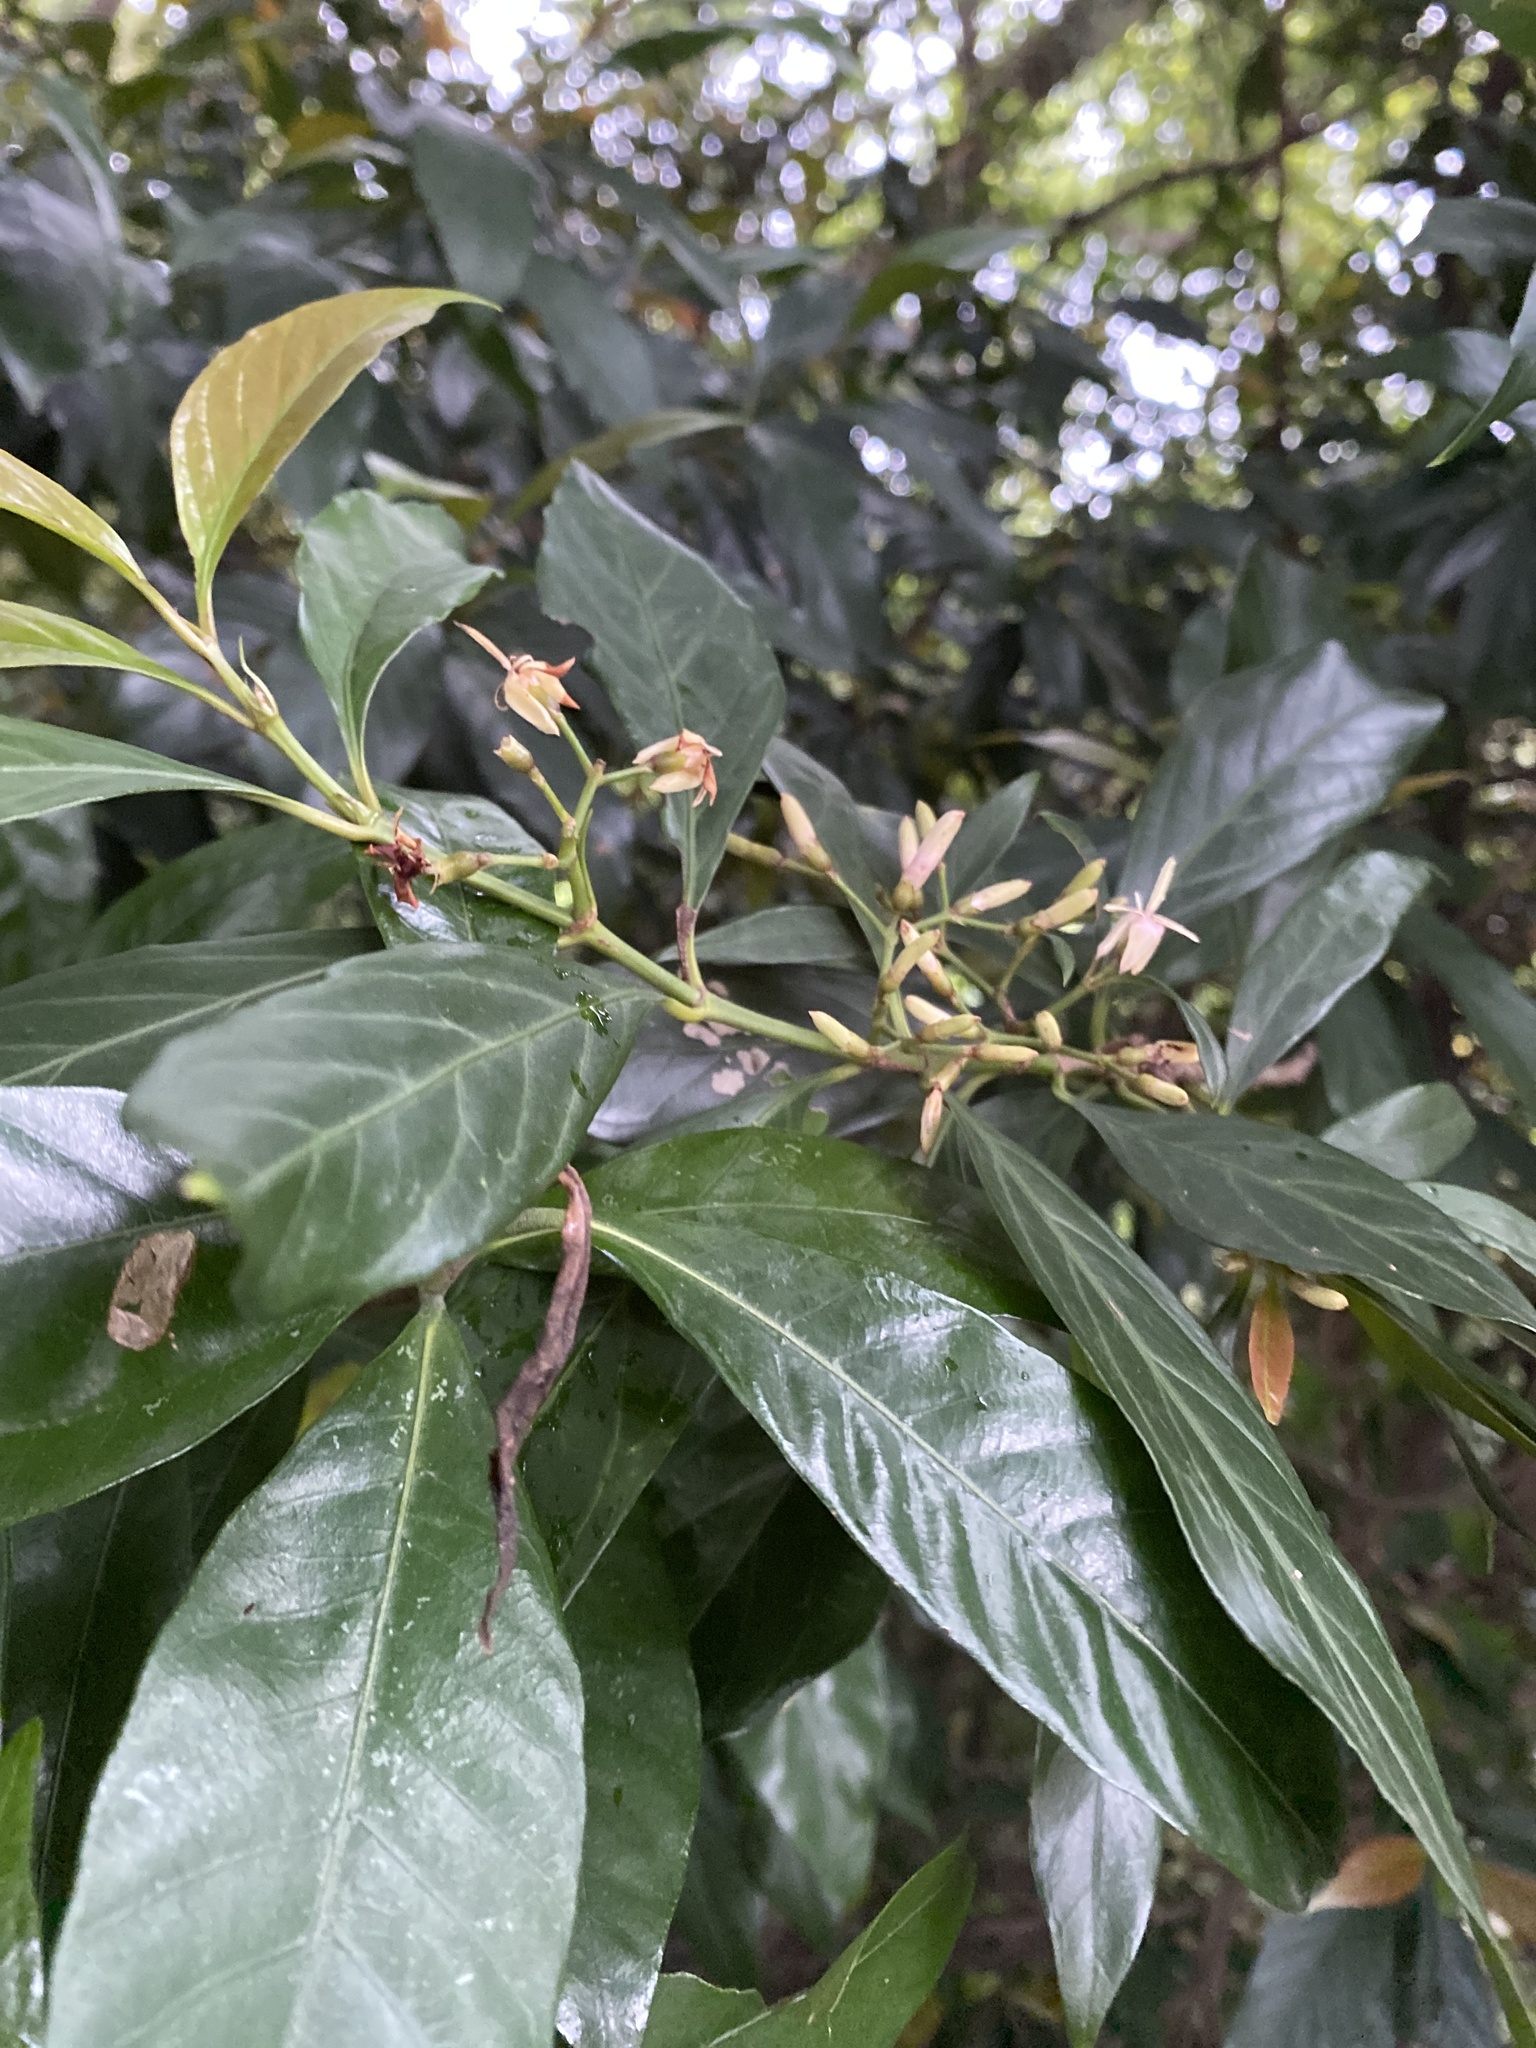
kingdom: Plantae
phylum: Tracheophyta
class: Magnoliopsida
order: Gentianales
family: Rubiaceae
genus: Aidia
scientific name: Aidia cochinchinensis
